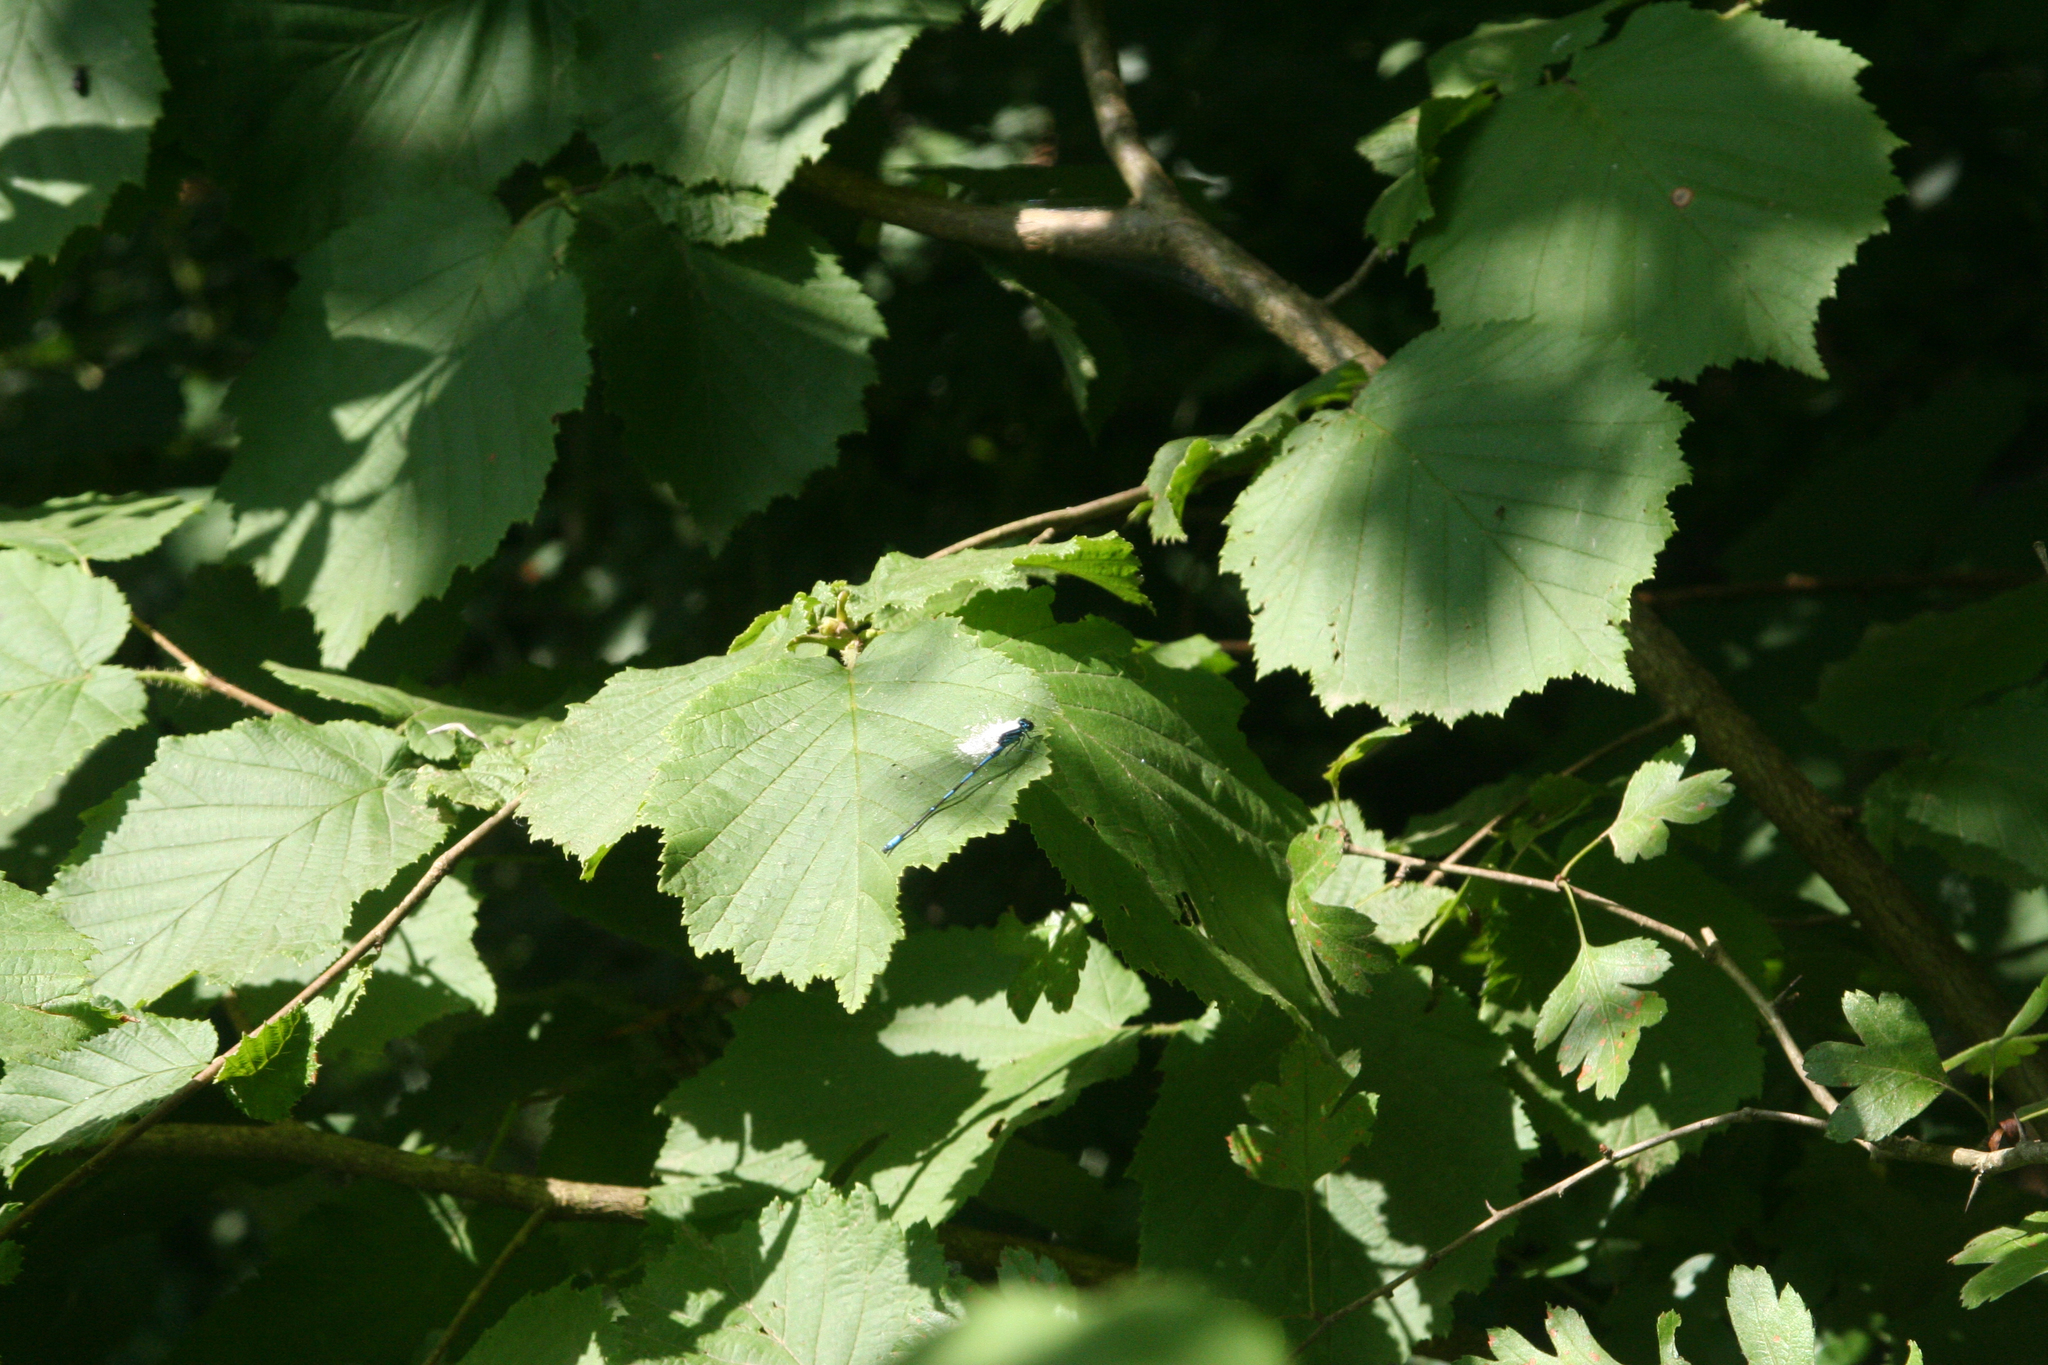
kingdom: Plantae
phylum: Tracheophyta
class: Magnoliopsida
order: Fagales
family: Betulaceae
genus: Corylus
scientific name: Corylus avellana
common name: European hazel
